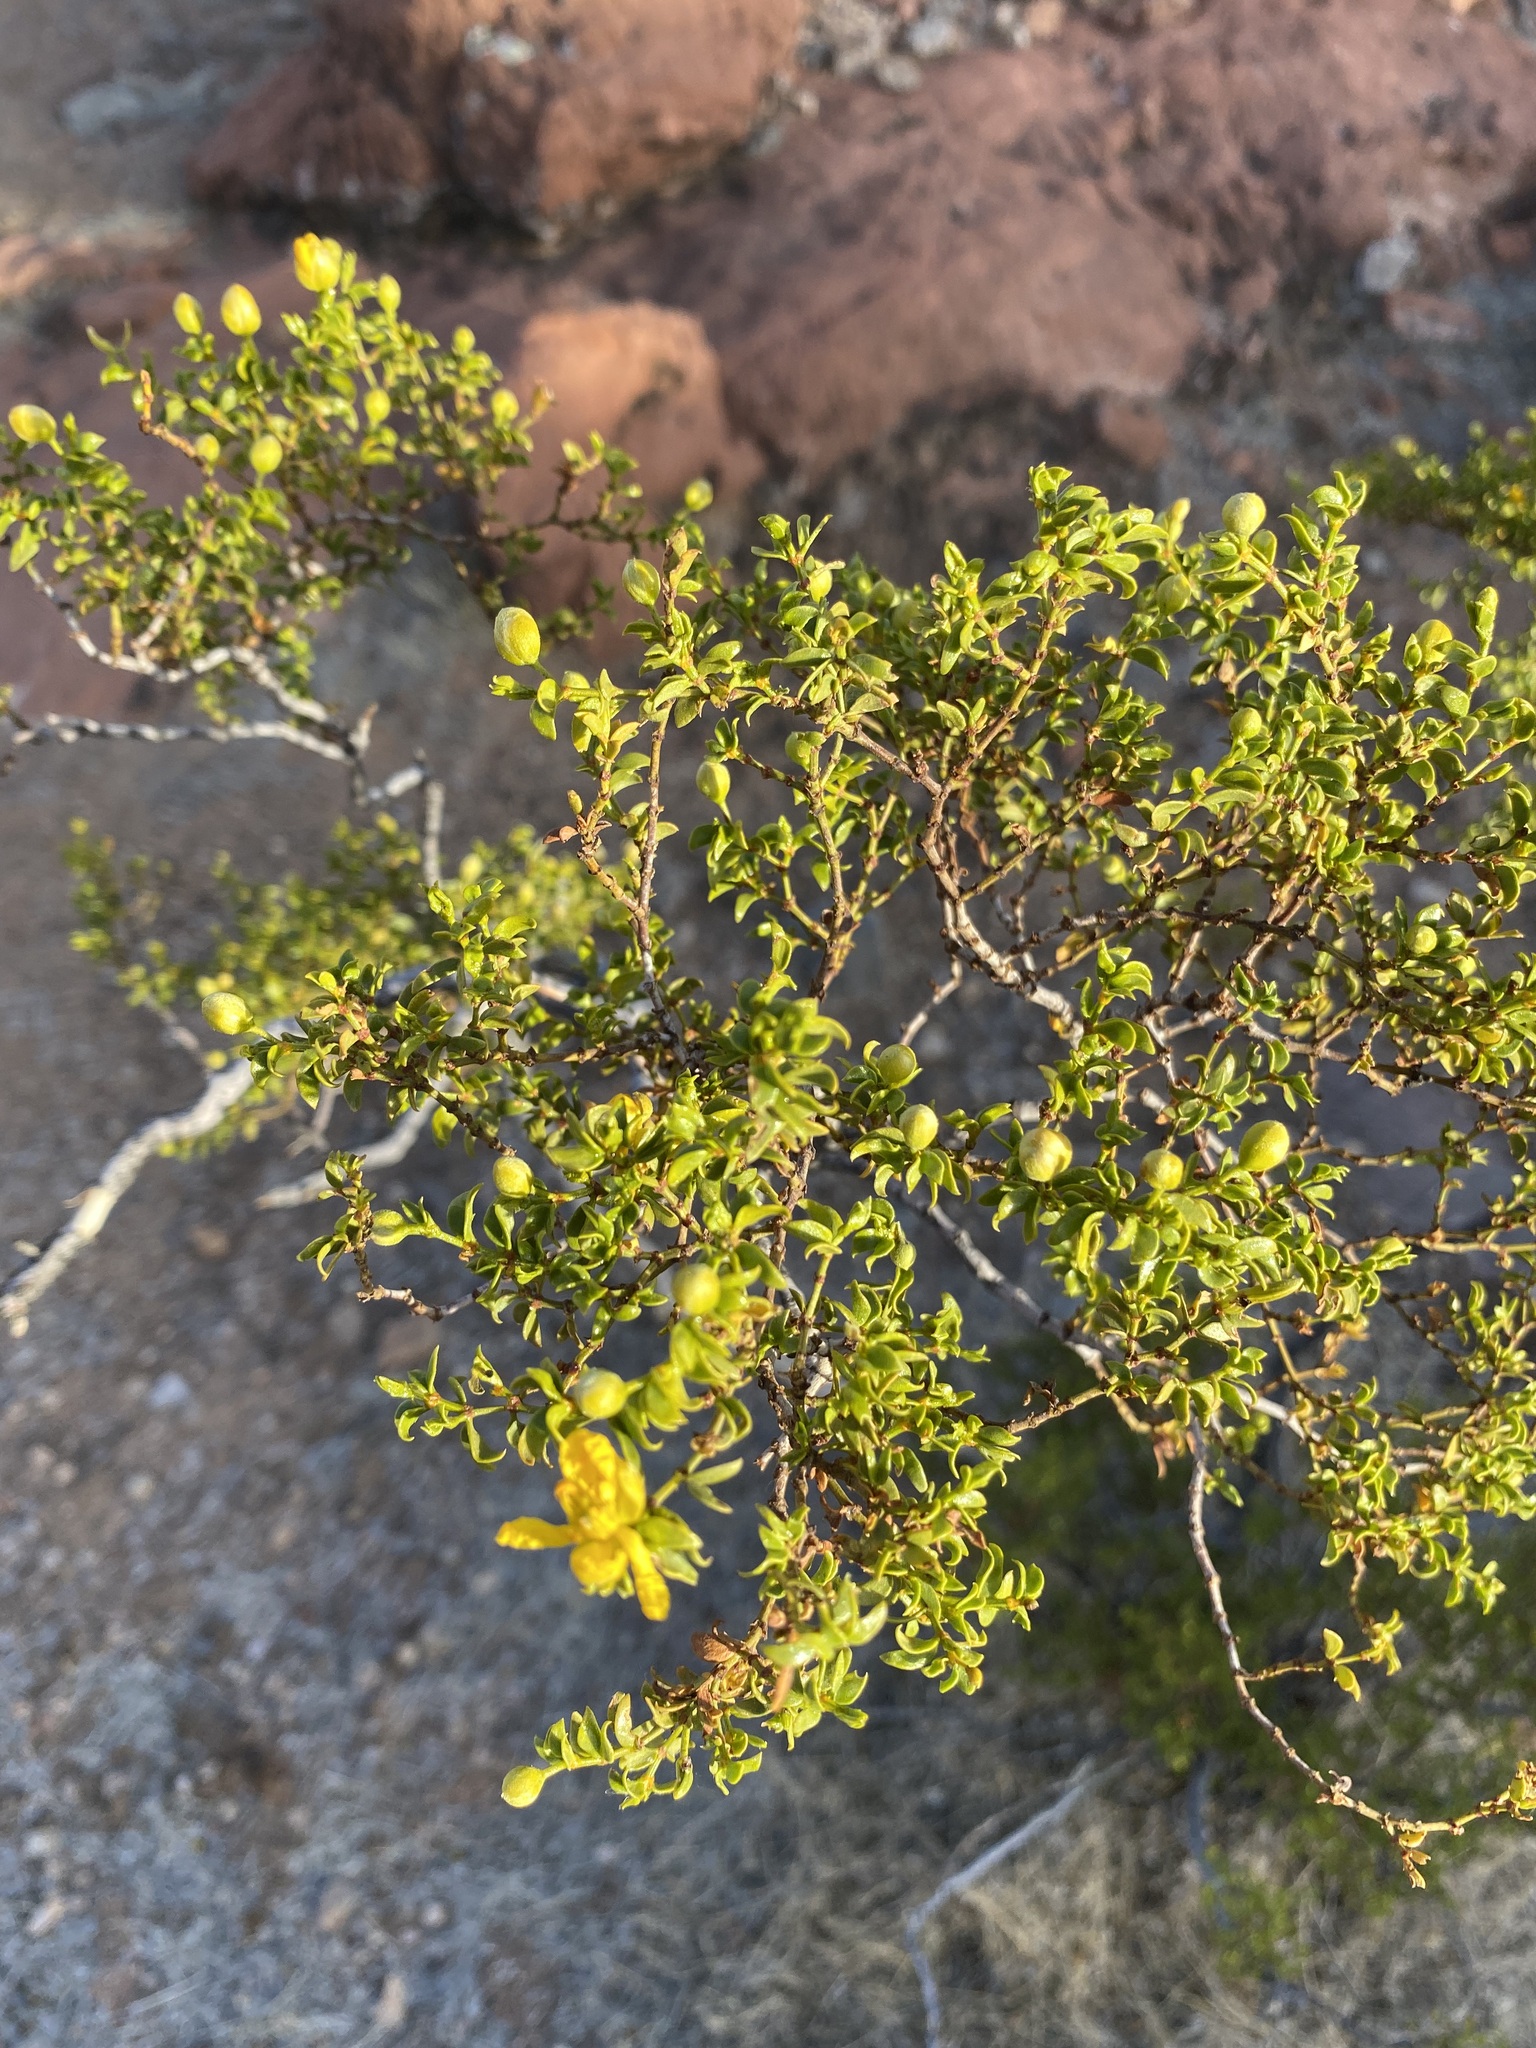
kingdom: Plantae
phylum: Tracheophyta
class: Magnoliopsida
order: Zygophyllales
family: Zygophyllaceae
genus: Larrea
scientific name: Larrea tridentata
